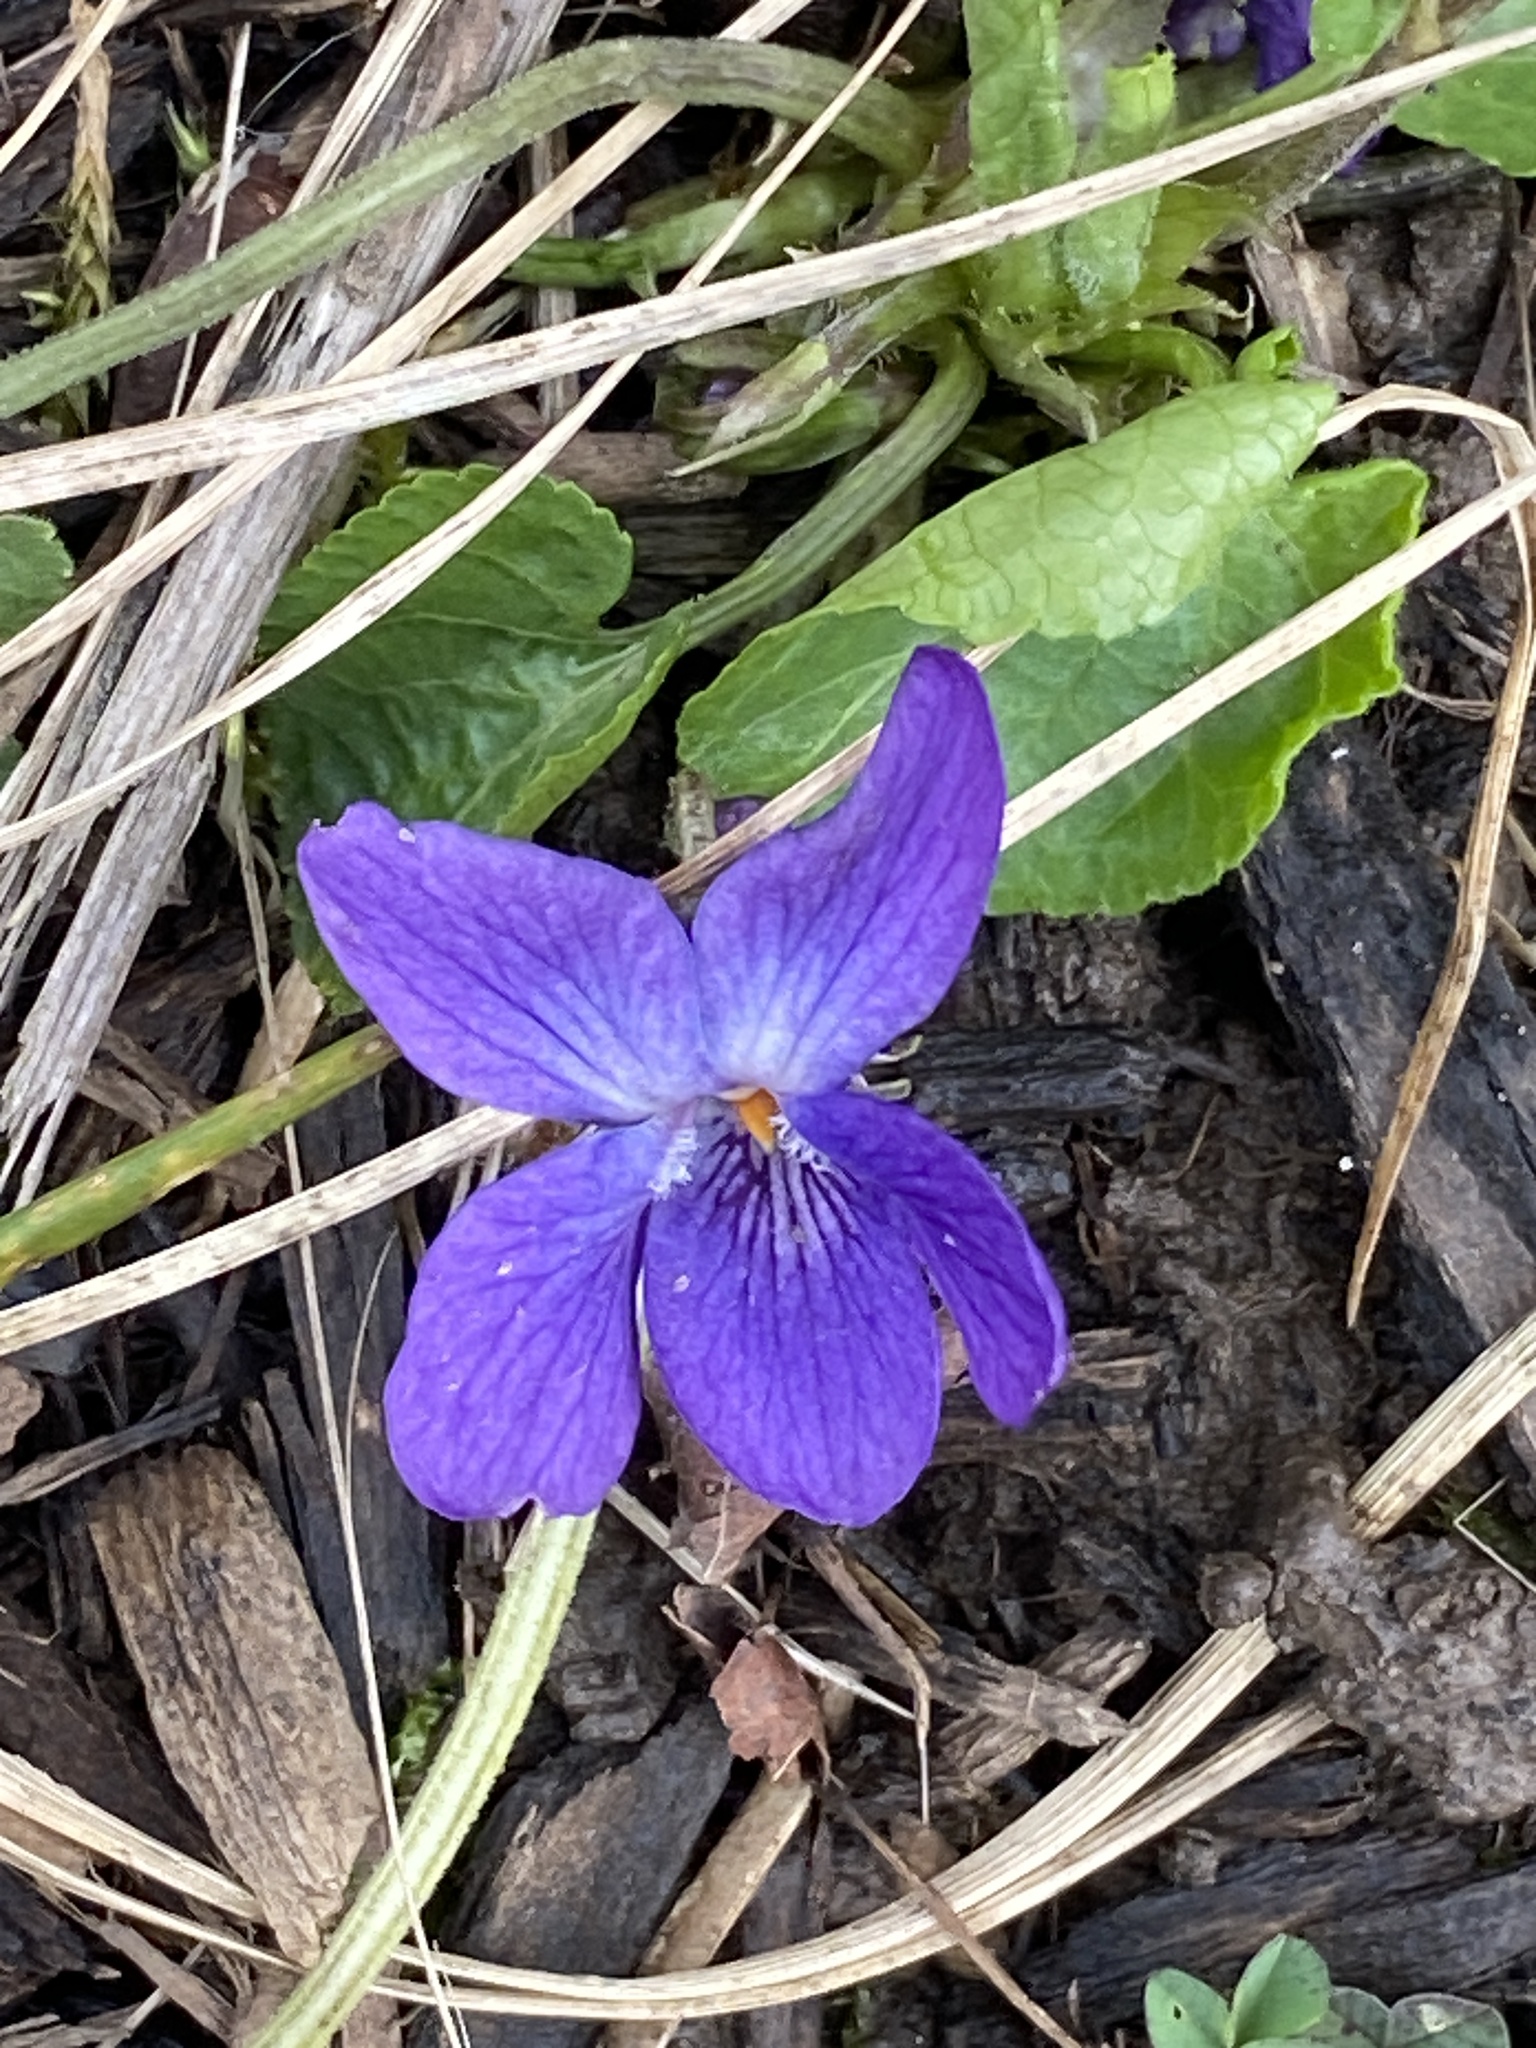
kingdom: Plantae
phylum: Tracheophyta
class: Magnoliopsida
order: Malpighiales
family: Violaceae
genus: Viola
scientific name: Viola odorata
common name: Sweet violet
